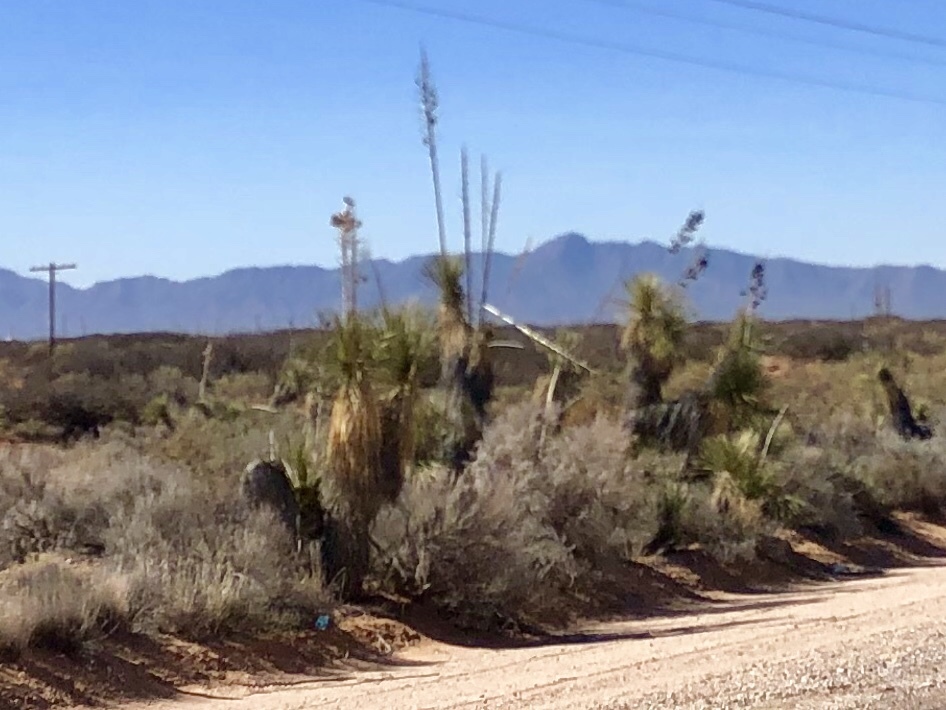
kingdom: Plantae
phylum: Tracheophyta
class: Liliopsida
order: Asparagales
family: Asparagaceae
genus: Yucca
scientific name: Yucca elata
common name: Palmella
